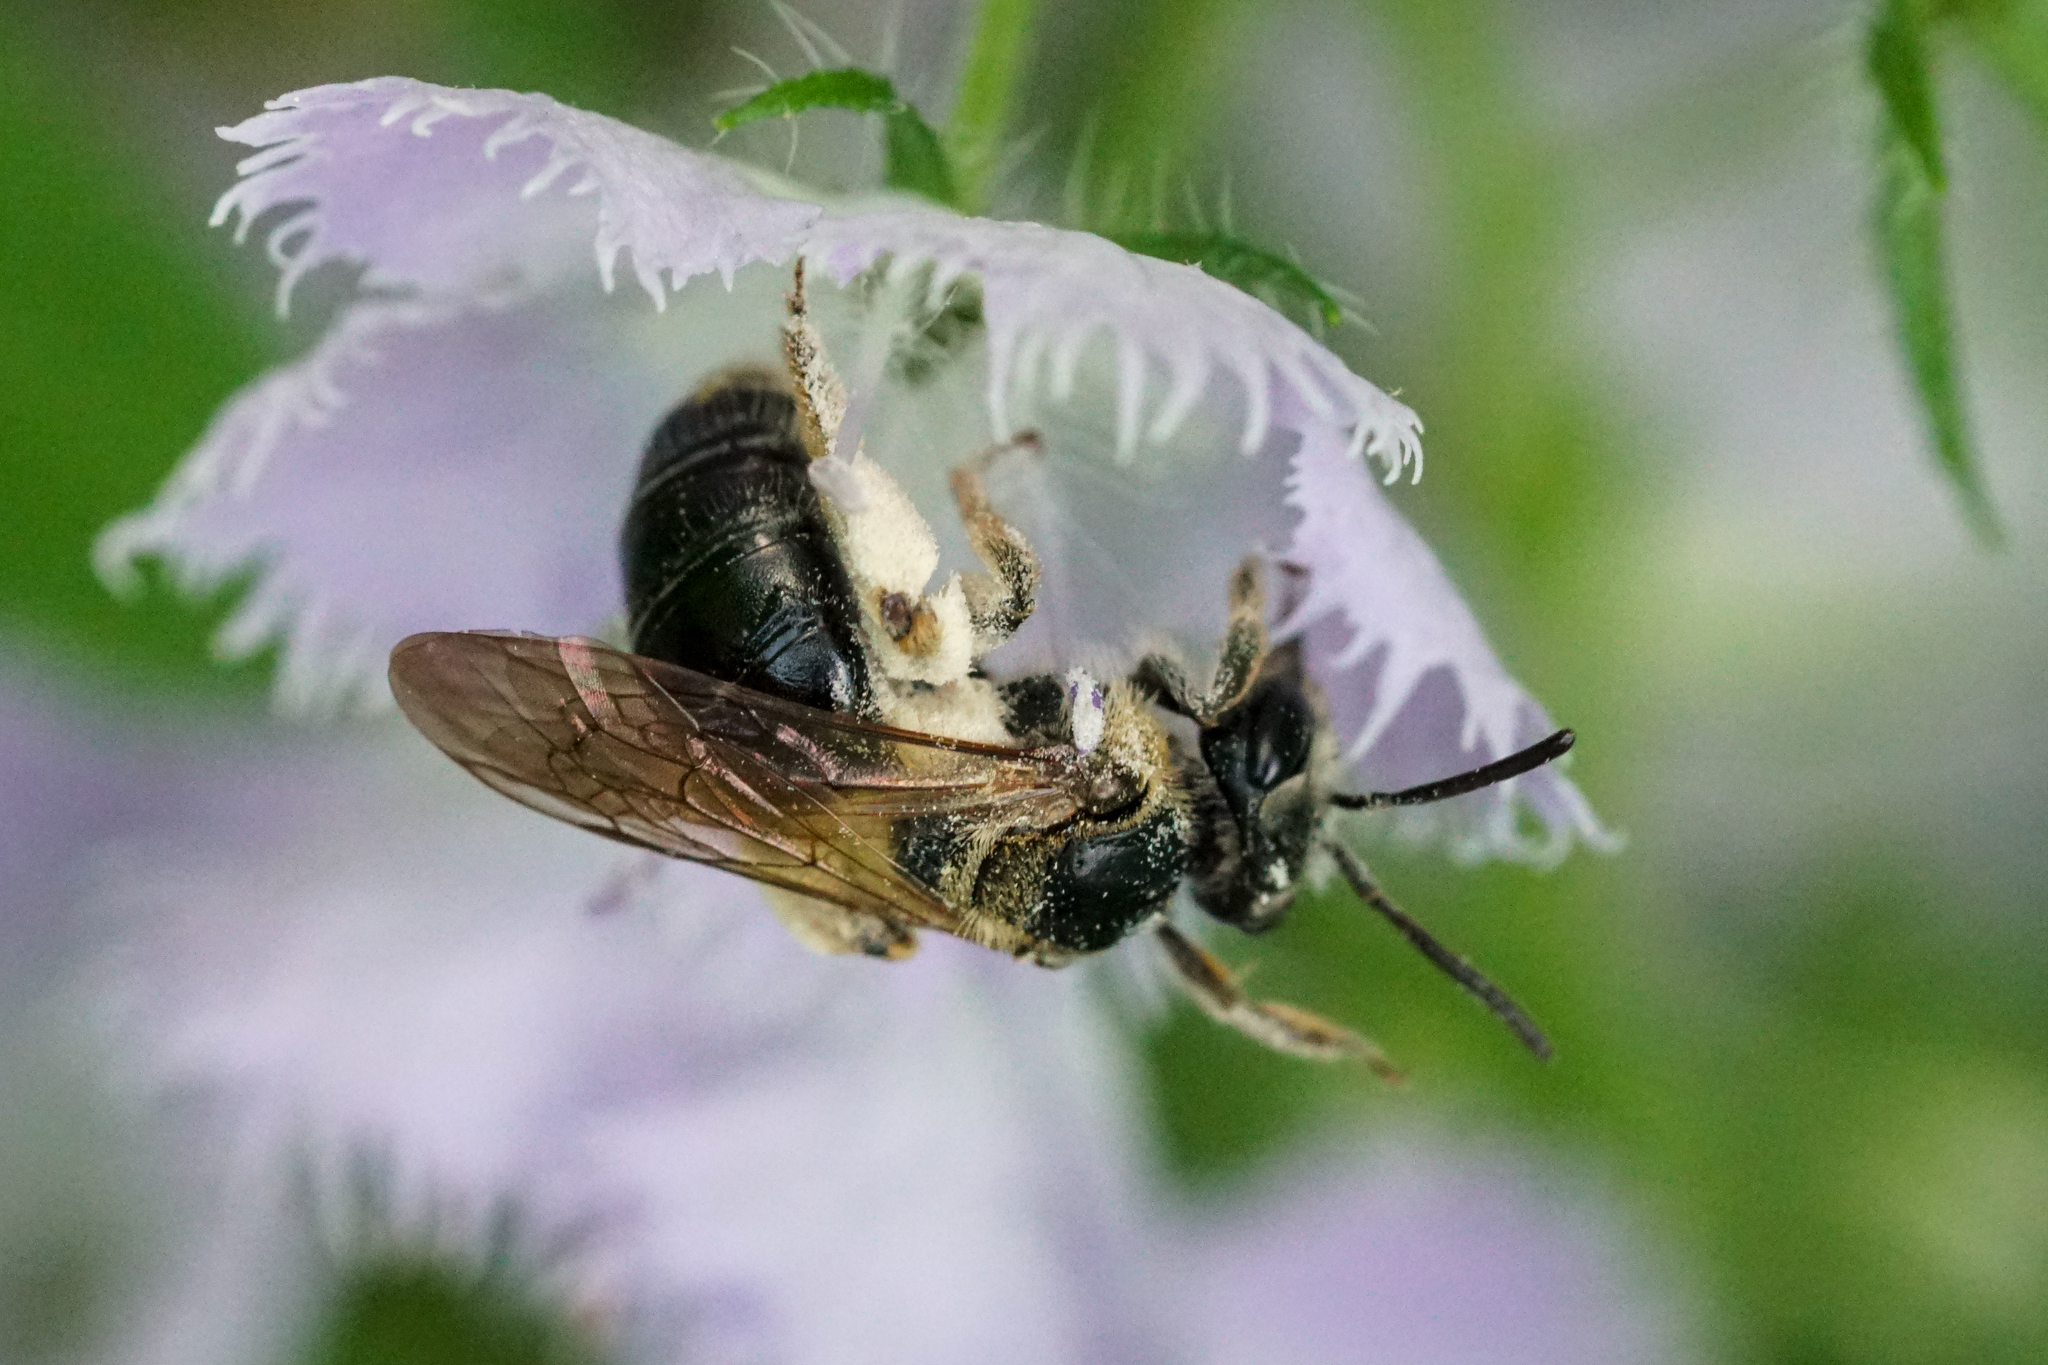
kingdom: Animalia
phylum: Arthropoda
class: Insecta
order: Hymenoptera
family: Andrenidae
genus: Andrena
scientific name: Andrena nuda
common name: Nude mining bee
